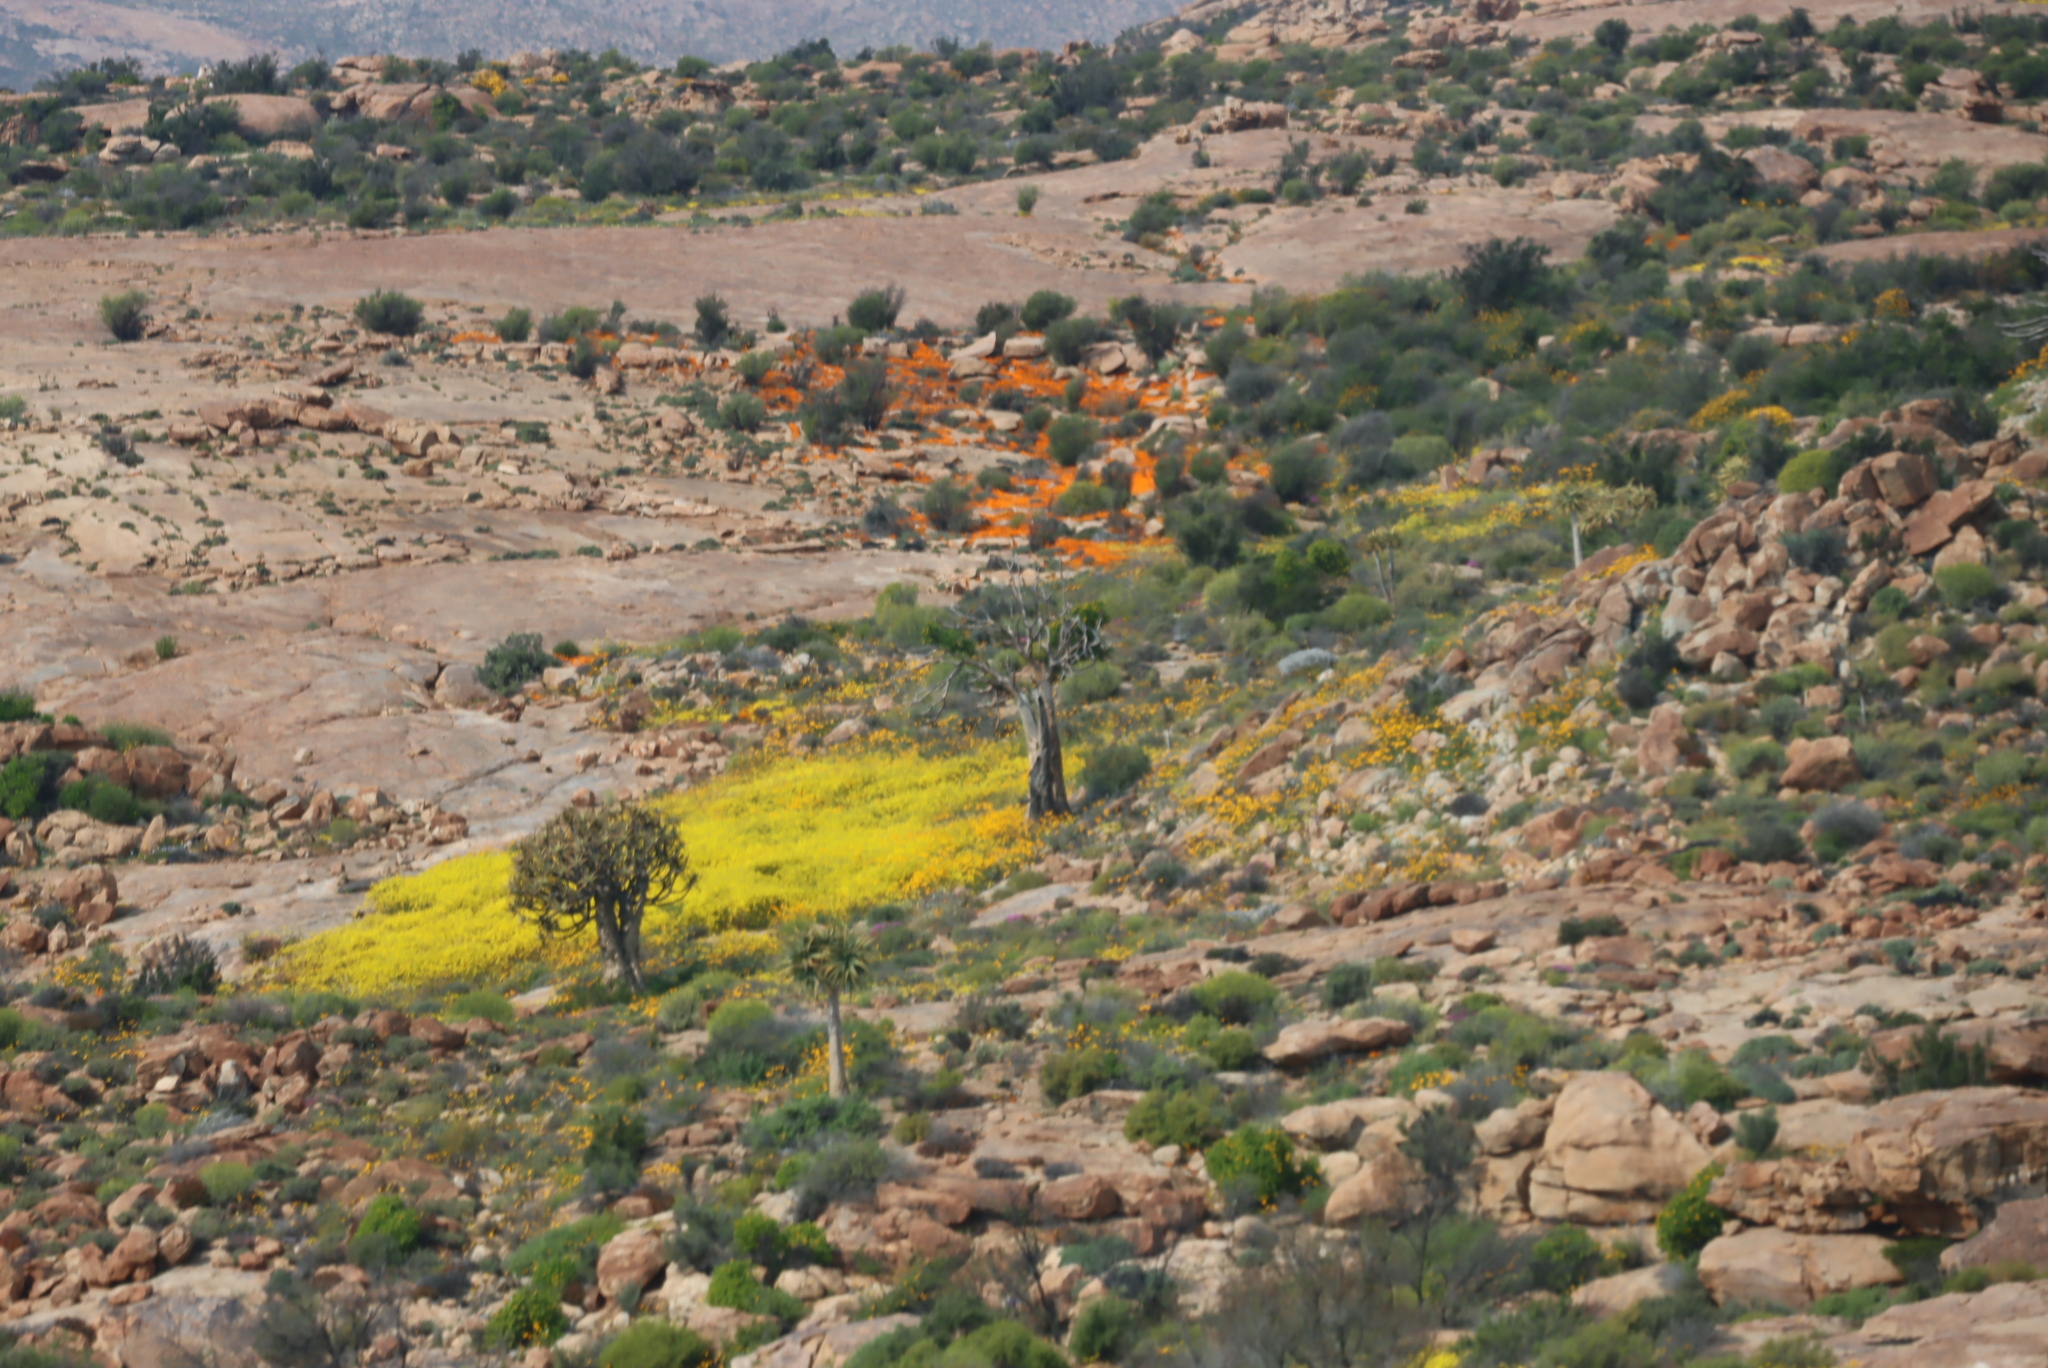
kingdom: Plantae
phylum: Tracheophyta
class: Liliopsida
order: Asparagales
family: Asphodelaceae
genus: Aloidendron
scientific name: Aloidendron dichotomum
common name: Quiver tree
